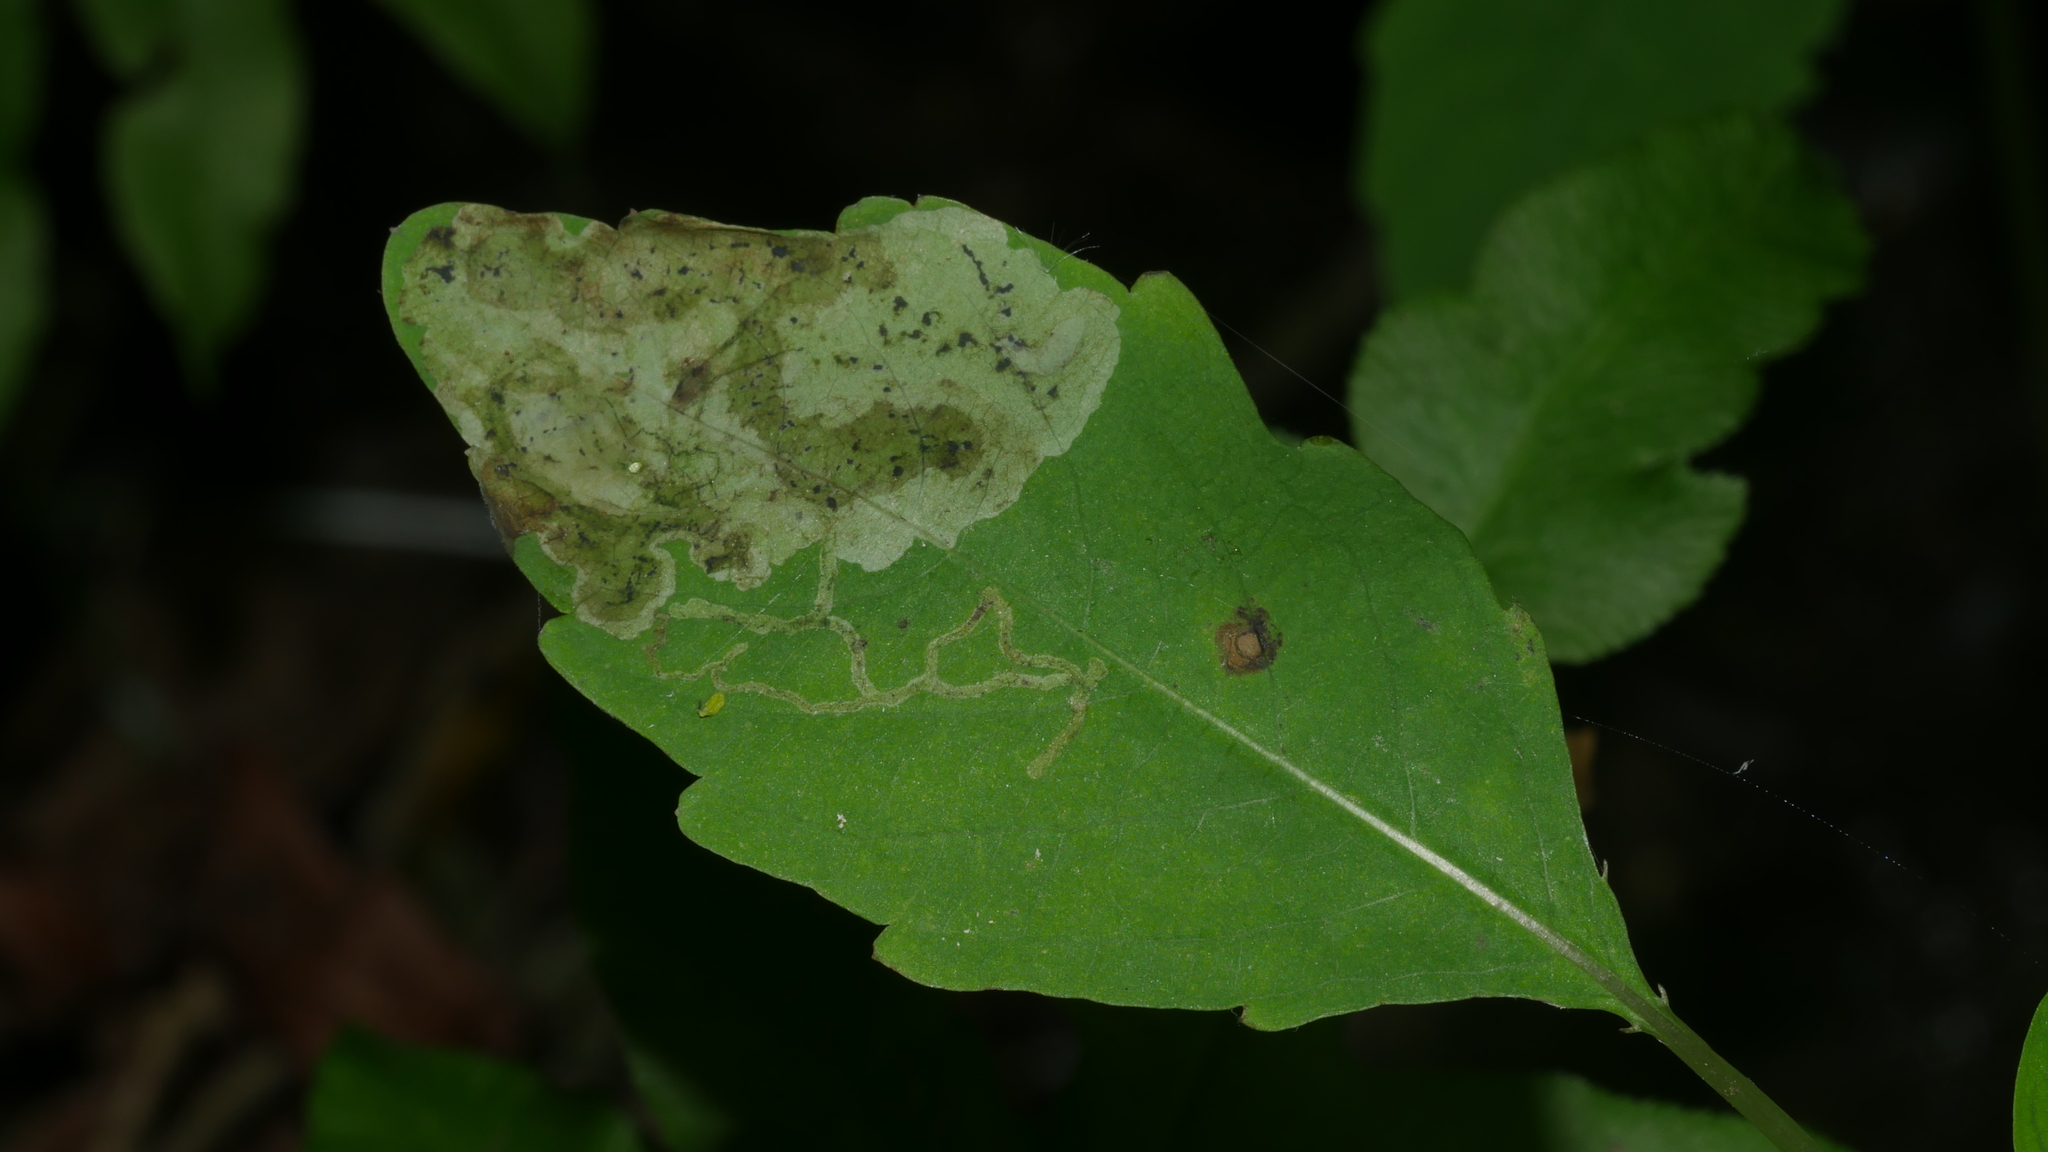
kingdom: Animalia
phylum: Arthropoda
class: Insecta
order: Diptera
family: Agromyzidae
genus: Phytoliriomyza
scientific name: Phytoliriomyza melampyga
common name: Jewelweed leaf-miner fly
